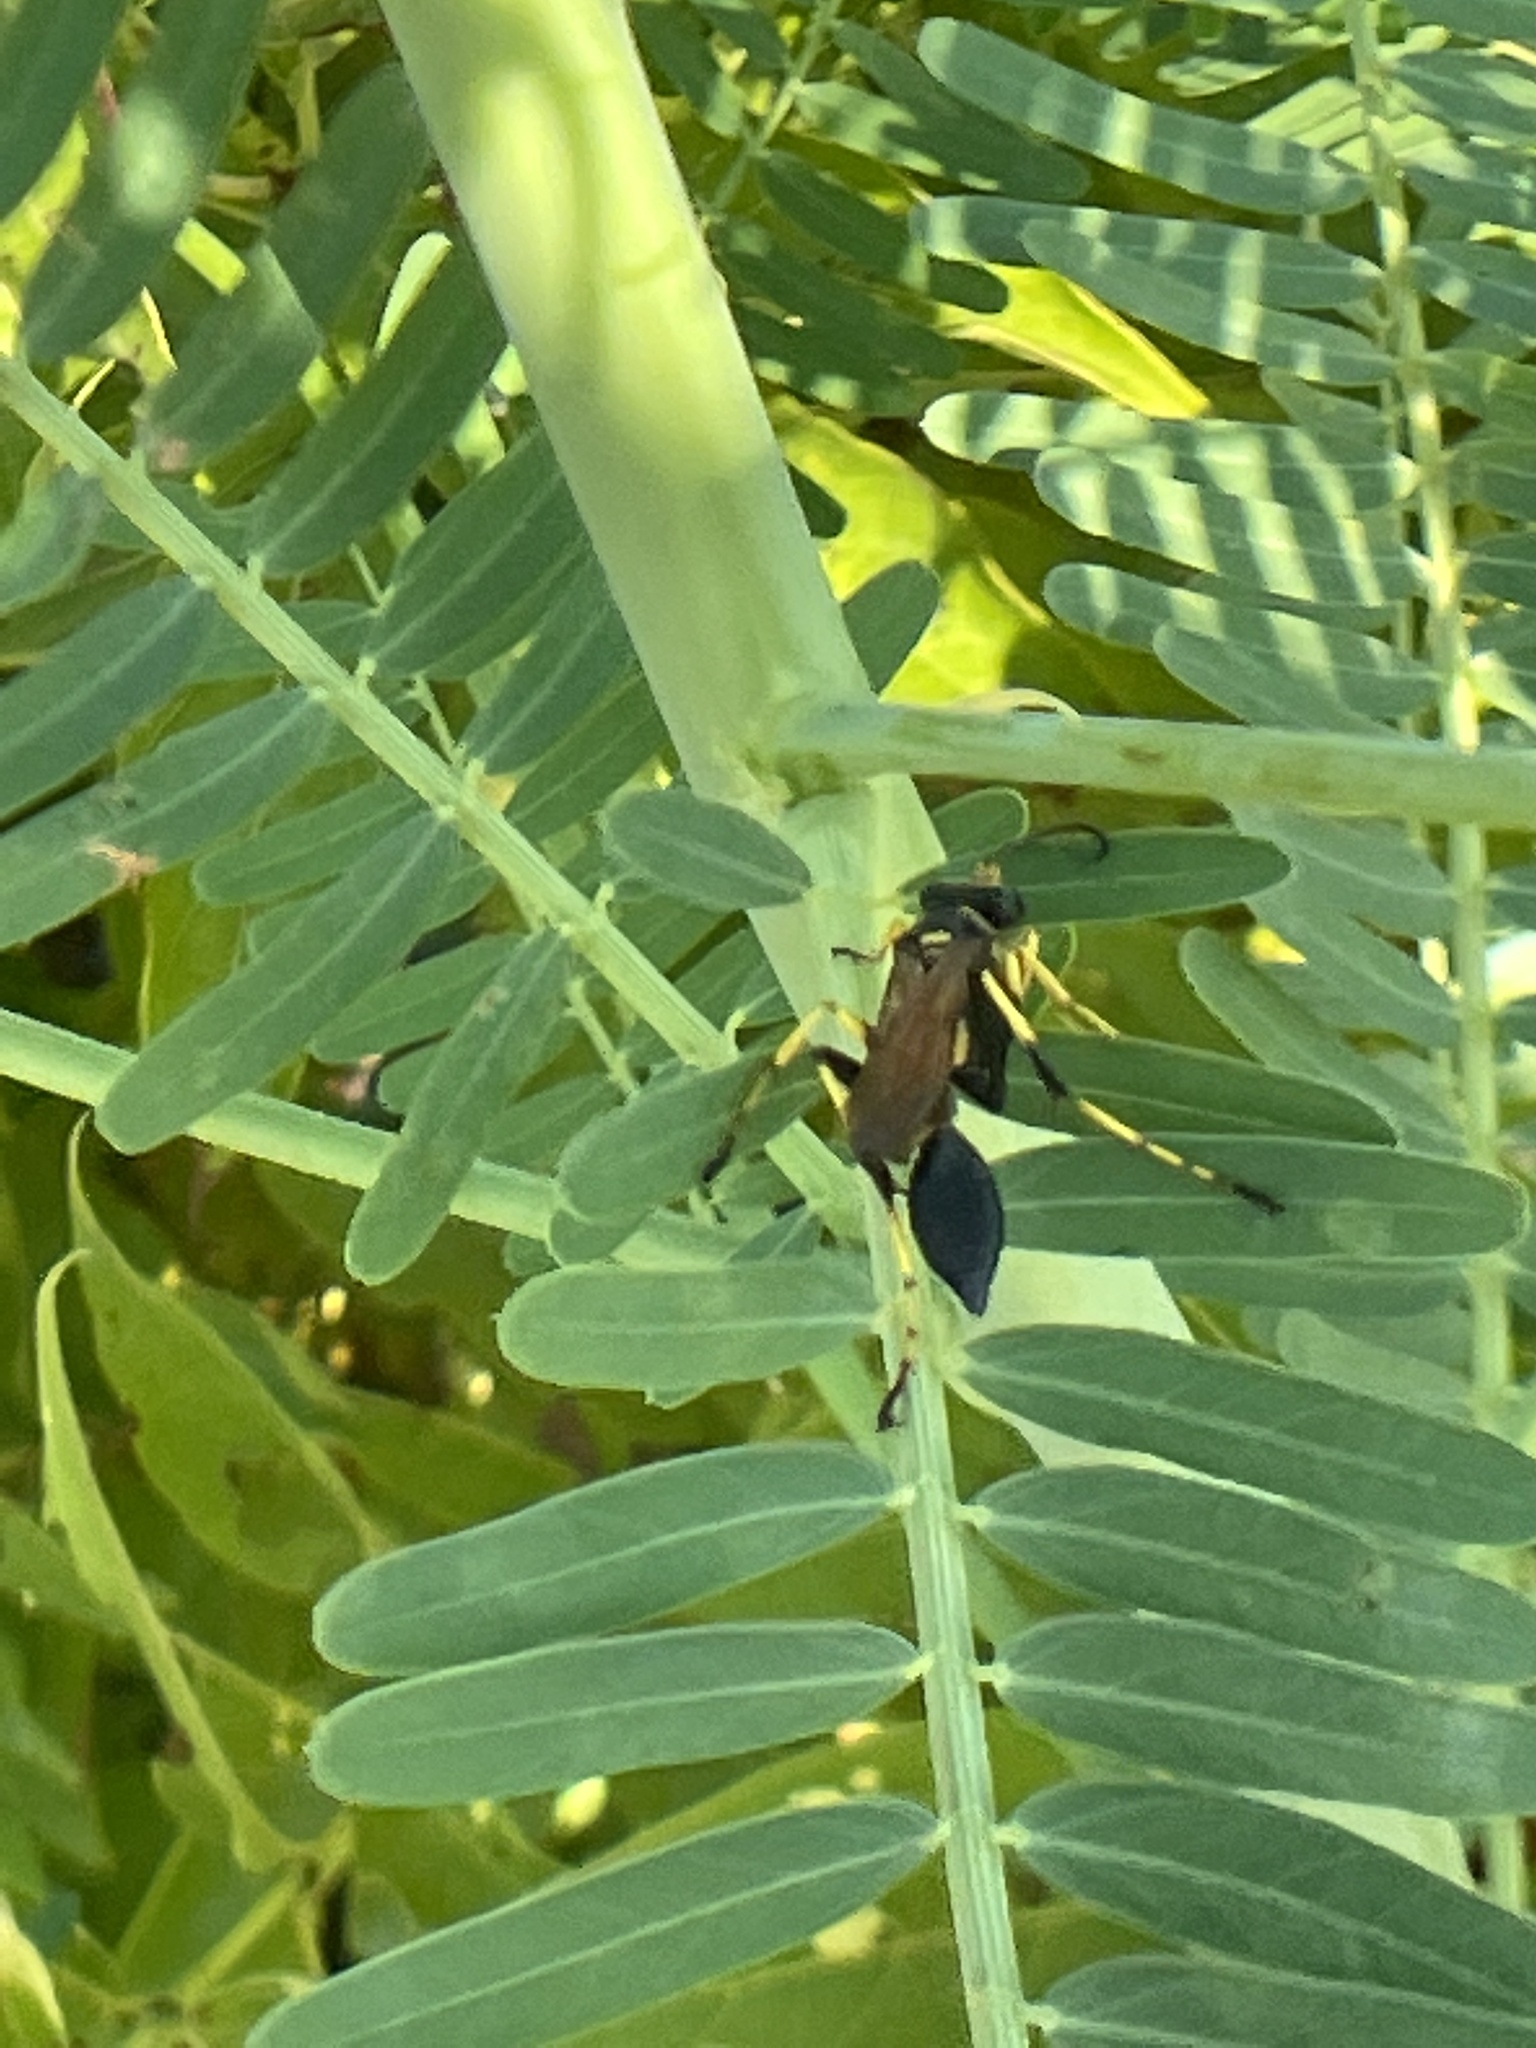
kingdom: Animalia
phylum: Arthropoda
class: Insecta
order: Hymenoptera
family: Sphecidae
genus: Sceliphron
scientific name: Sceliphron caementarium
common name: Mud dauber
